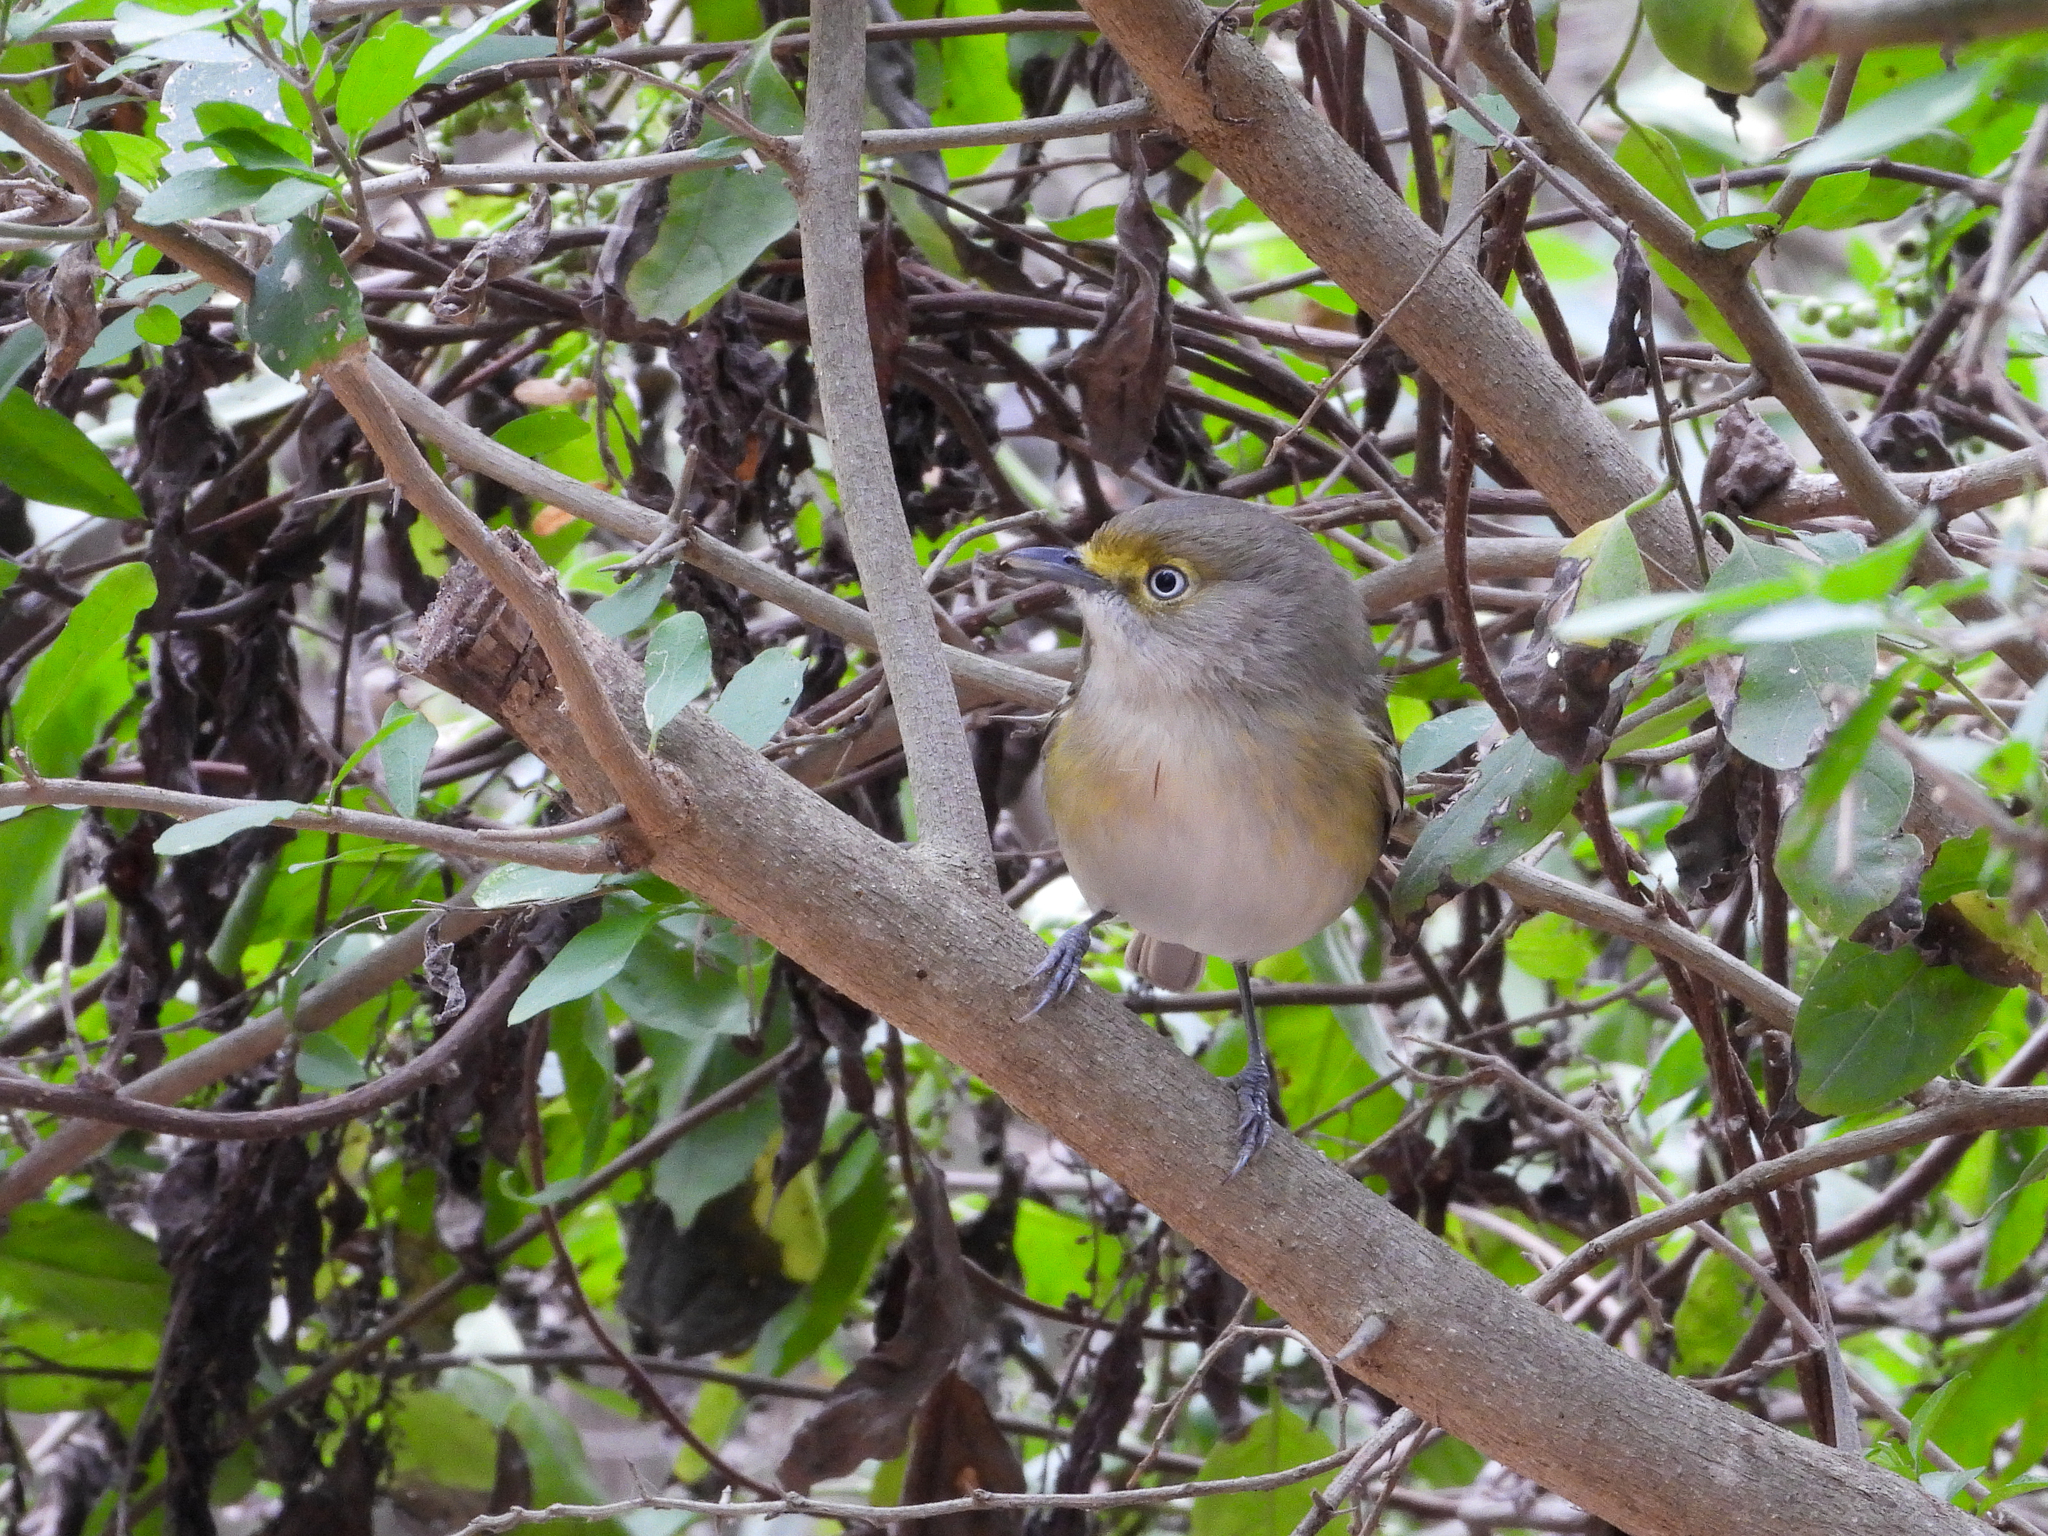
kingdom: Animalia
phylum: Chordata
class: Aves
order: Passeriformes
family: Vireonidae
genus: Vireo
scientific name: Vireo griseus
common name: White-eyed vireo
